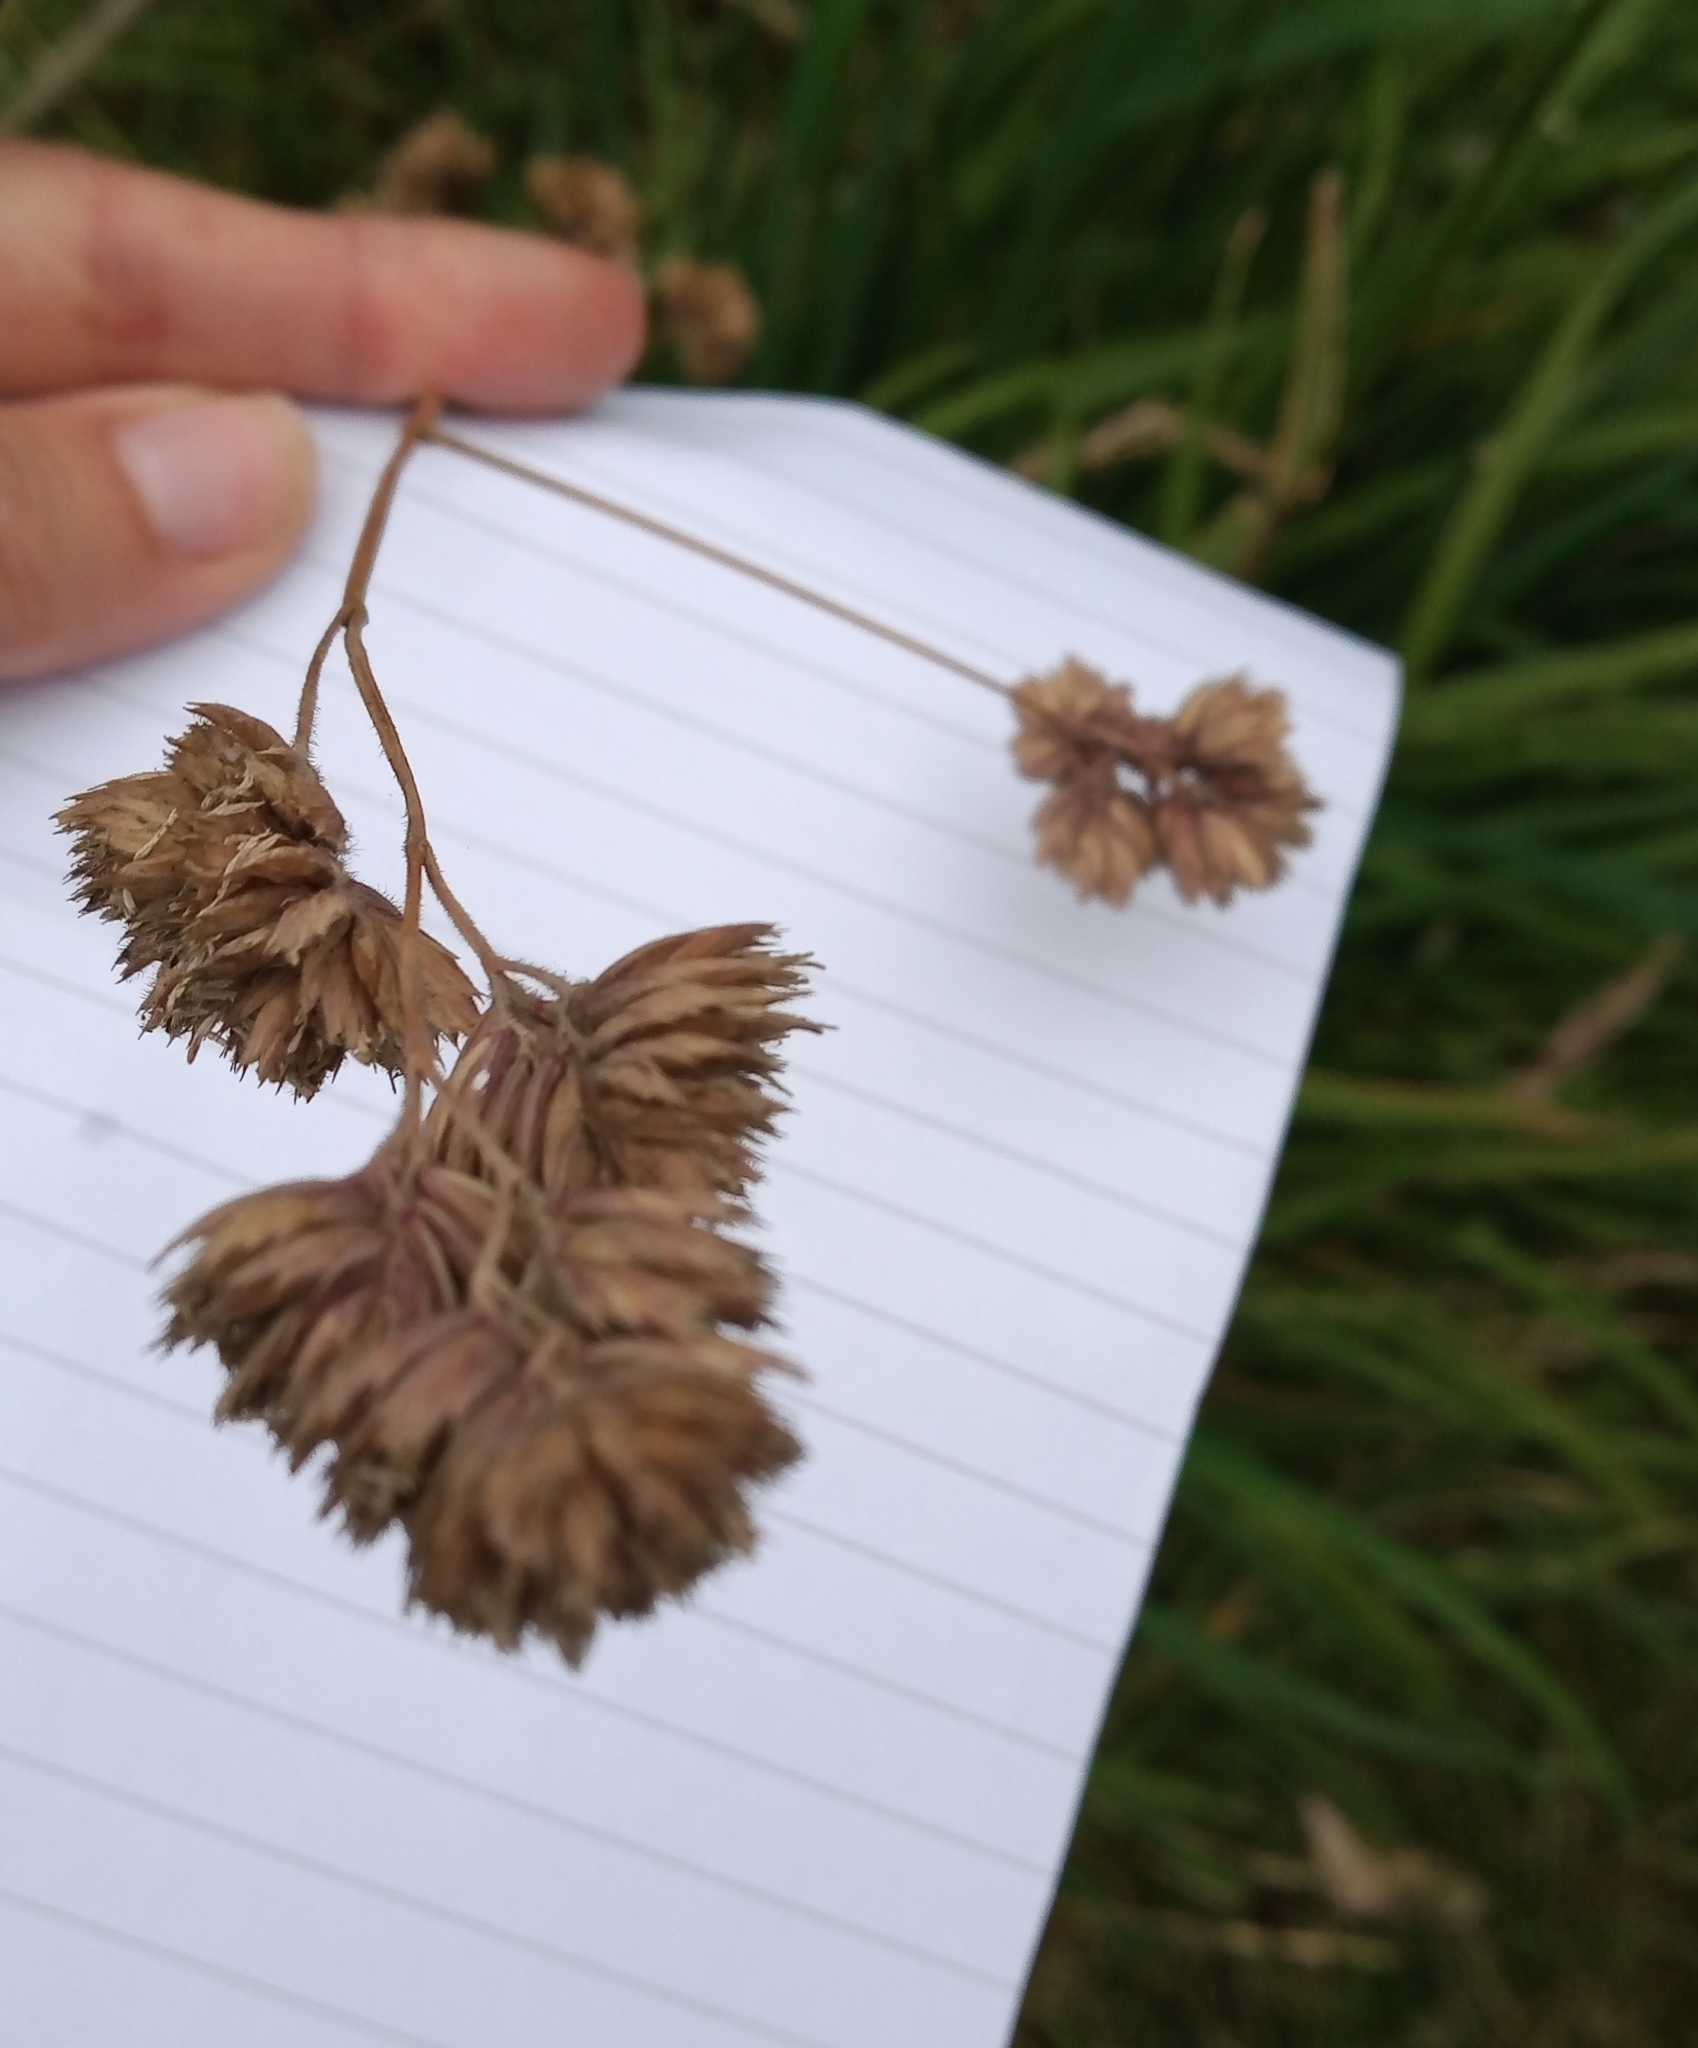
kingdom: Plantae
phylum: Tracheophyta
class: Liliopsida
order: Poales
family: Poaceae
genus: Dactylis
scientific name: Dactylis glomerata
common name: Orchardgrass
